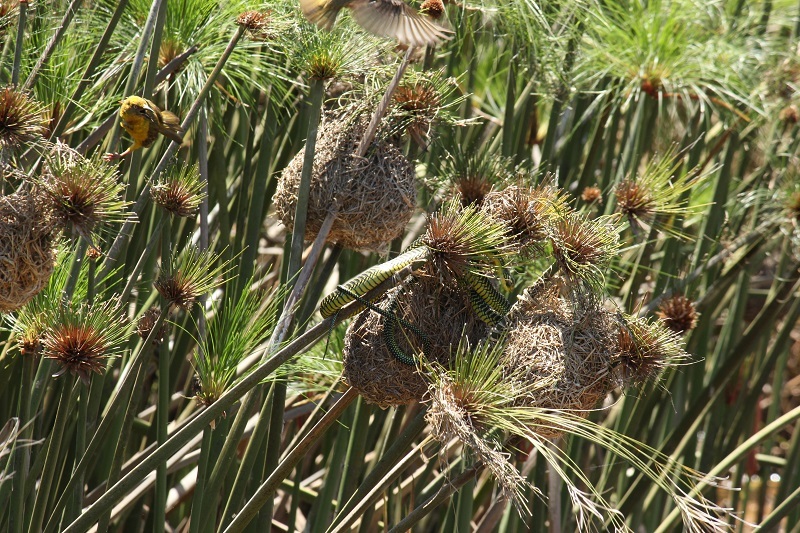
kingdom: Animalia
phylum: Chordata
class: Squamata
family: Colubridae
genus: Dispholidus
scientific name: Dispholidus typus
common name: Boomslang
